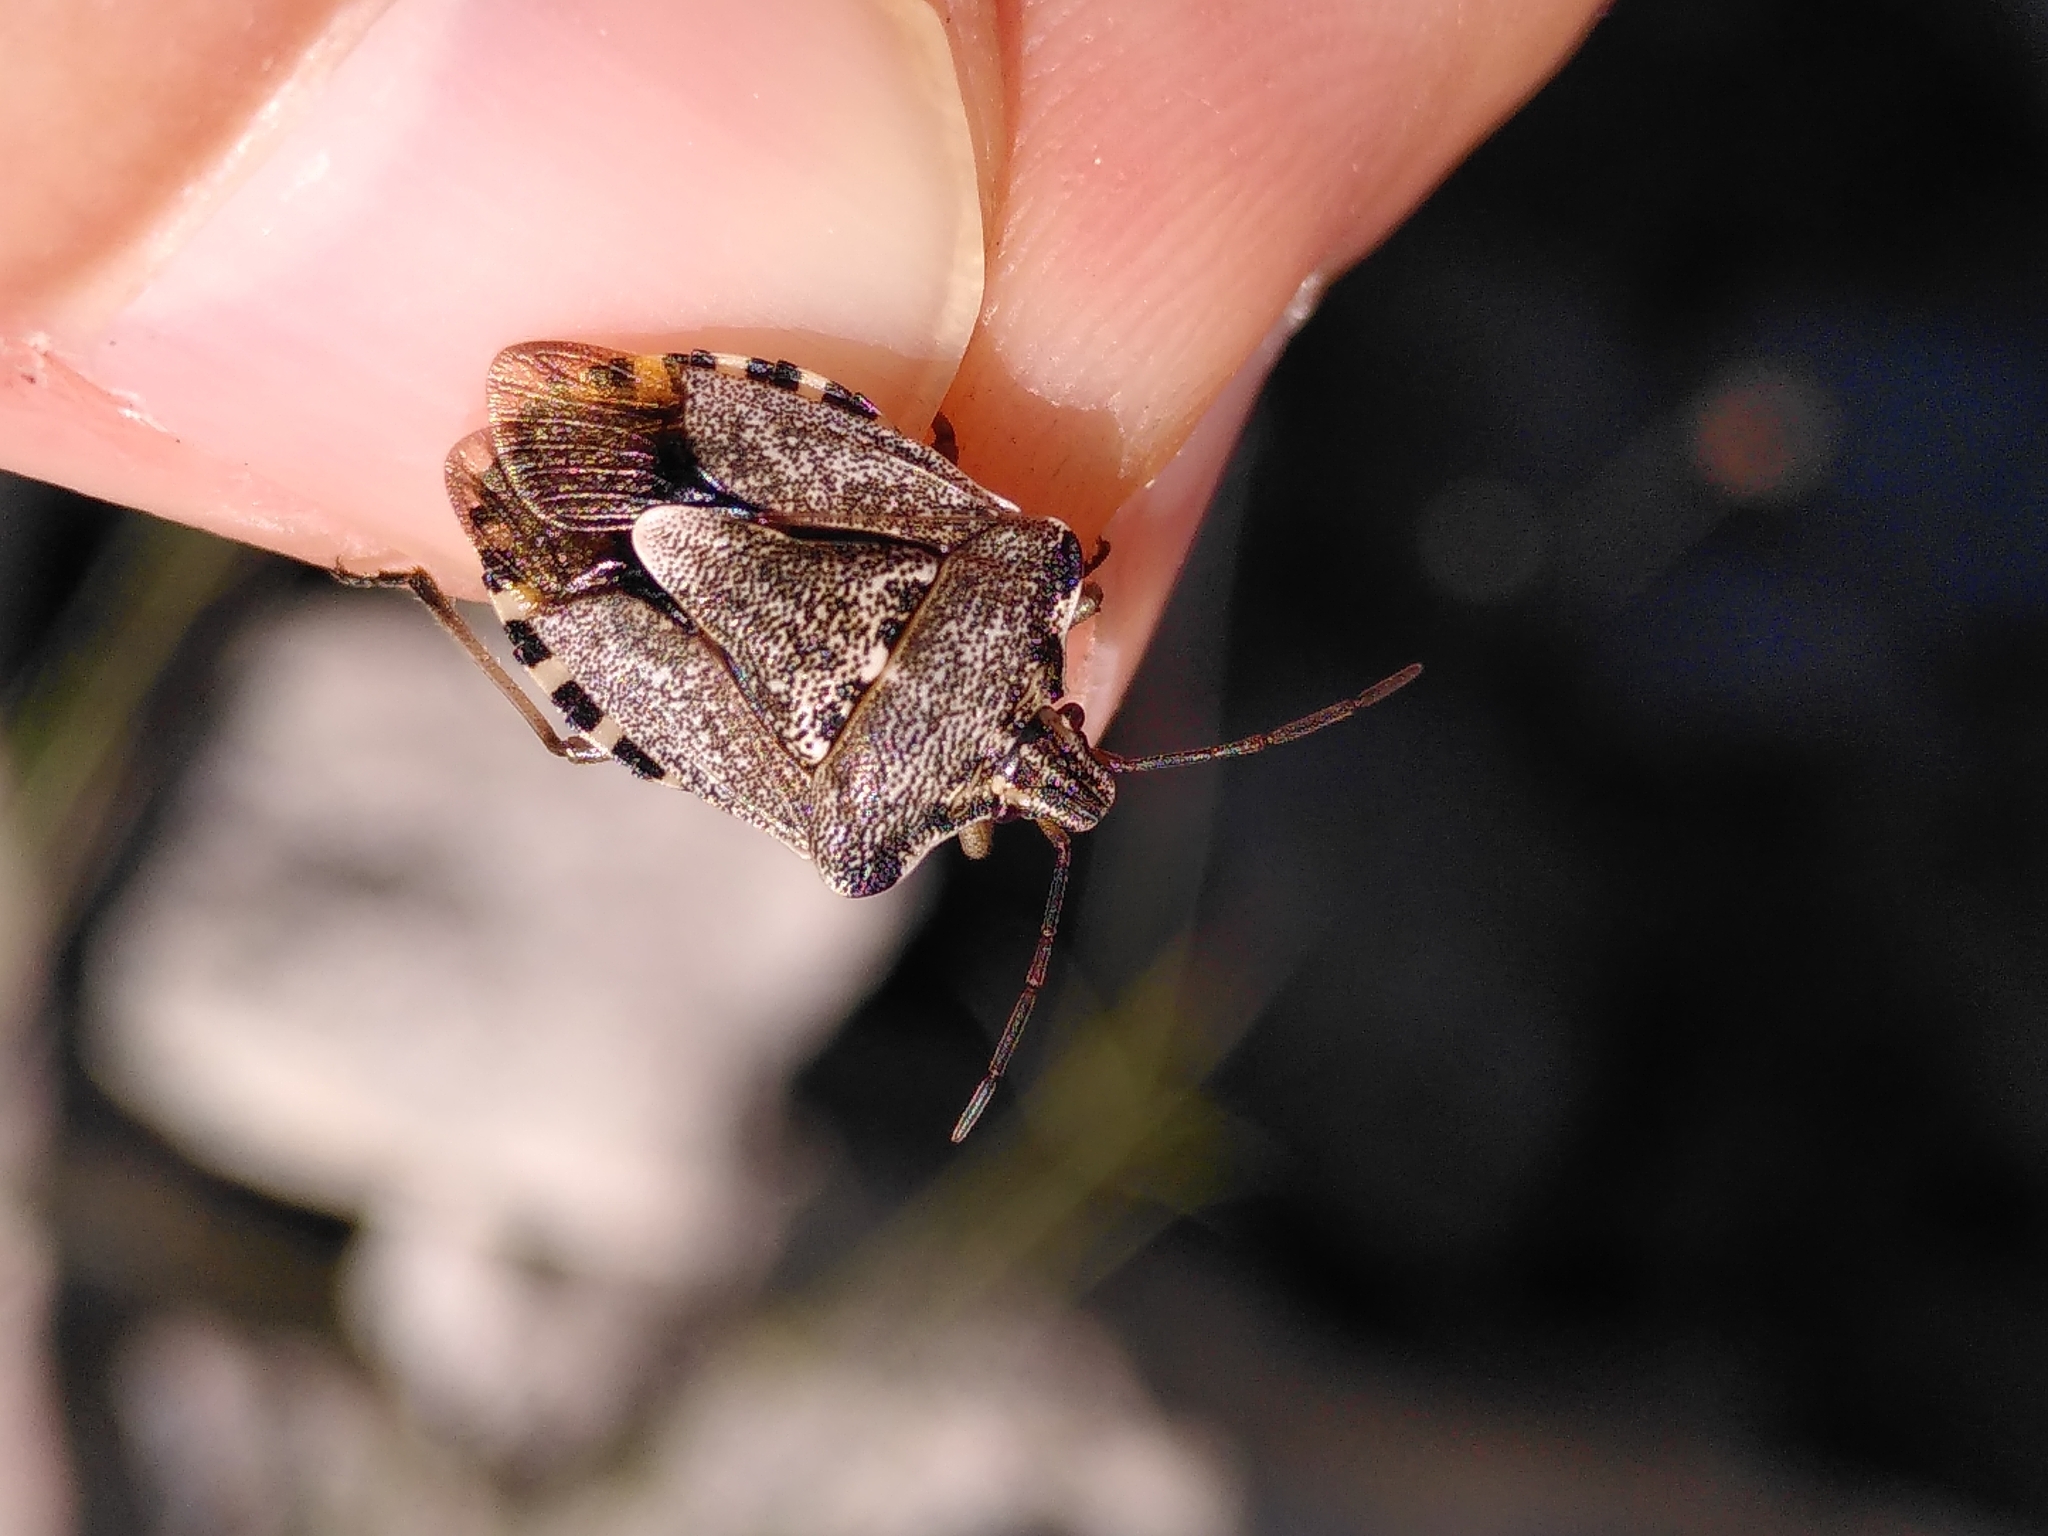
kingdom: Animalia
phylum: Arthropoda
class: Insecta
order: Hemiptera
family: Miridae
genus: Orthops
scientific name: Orthops kalmii
